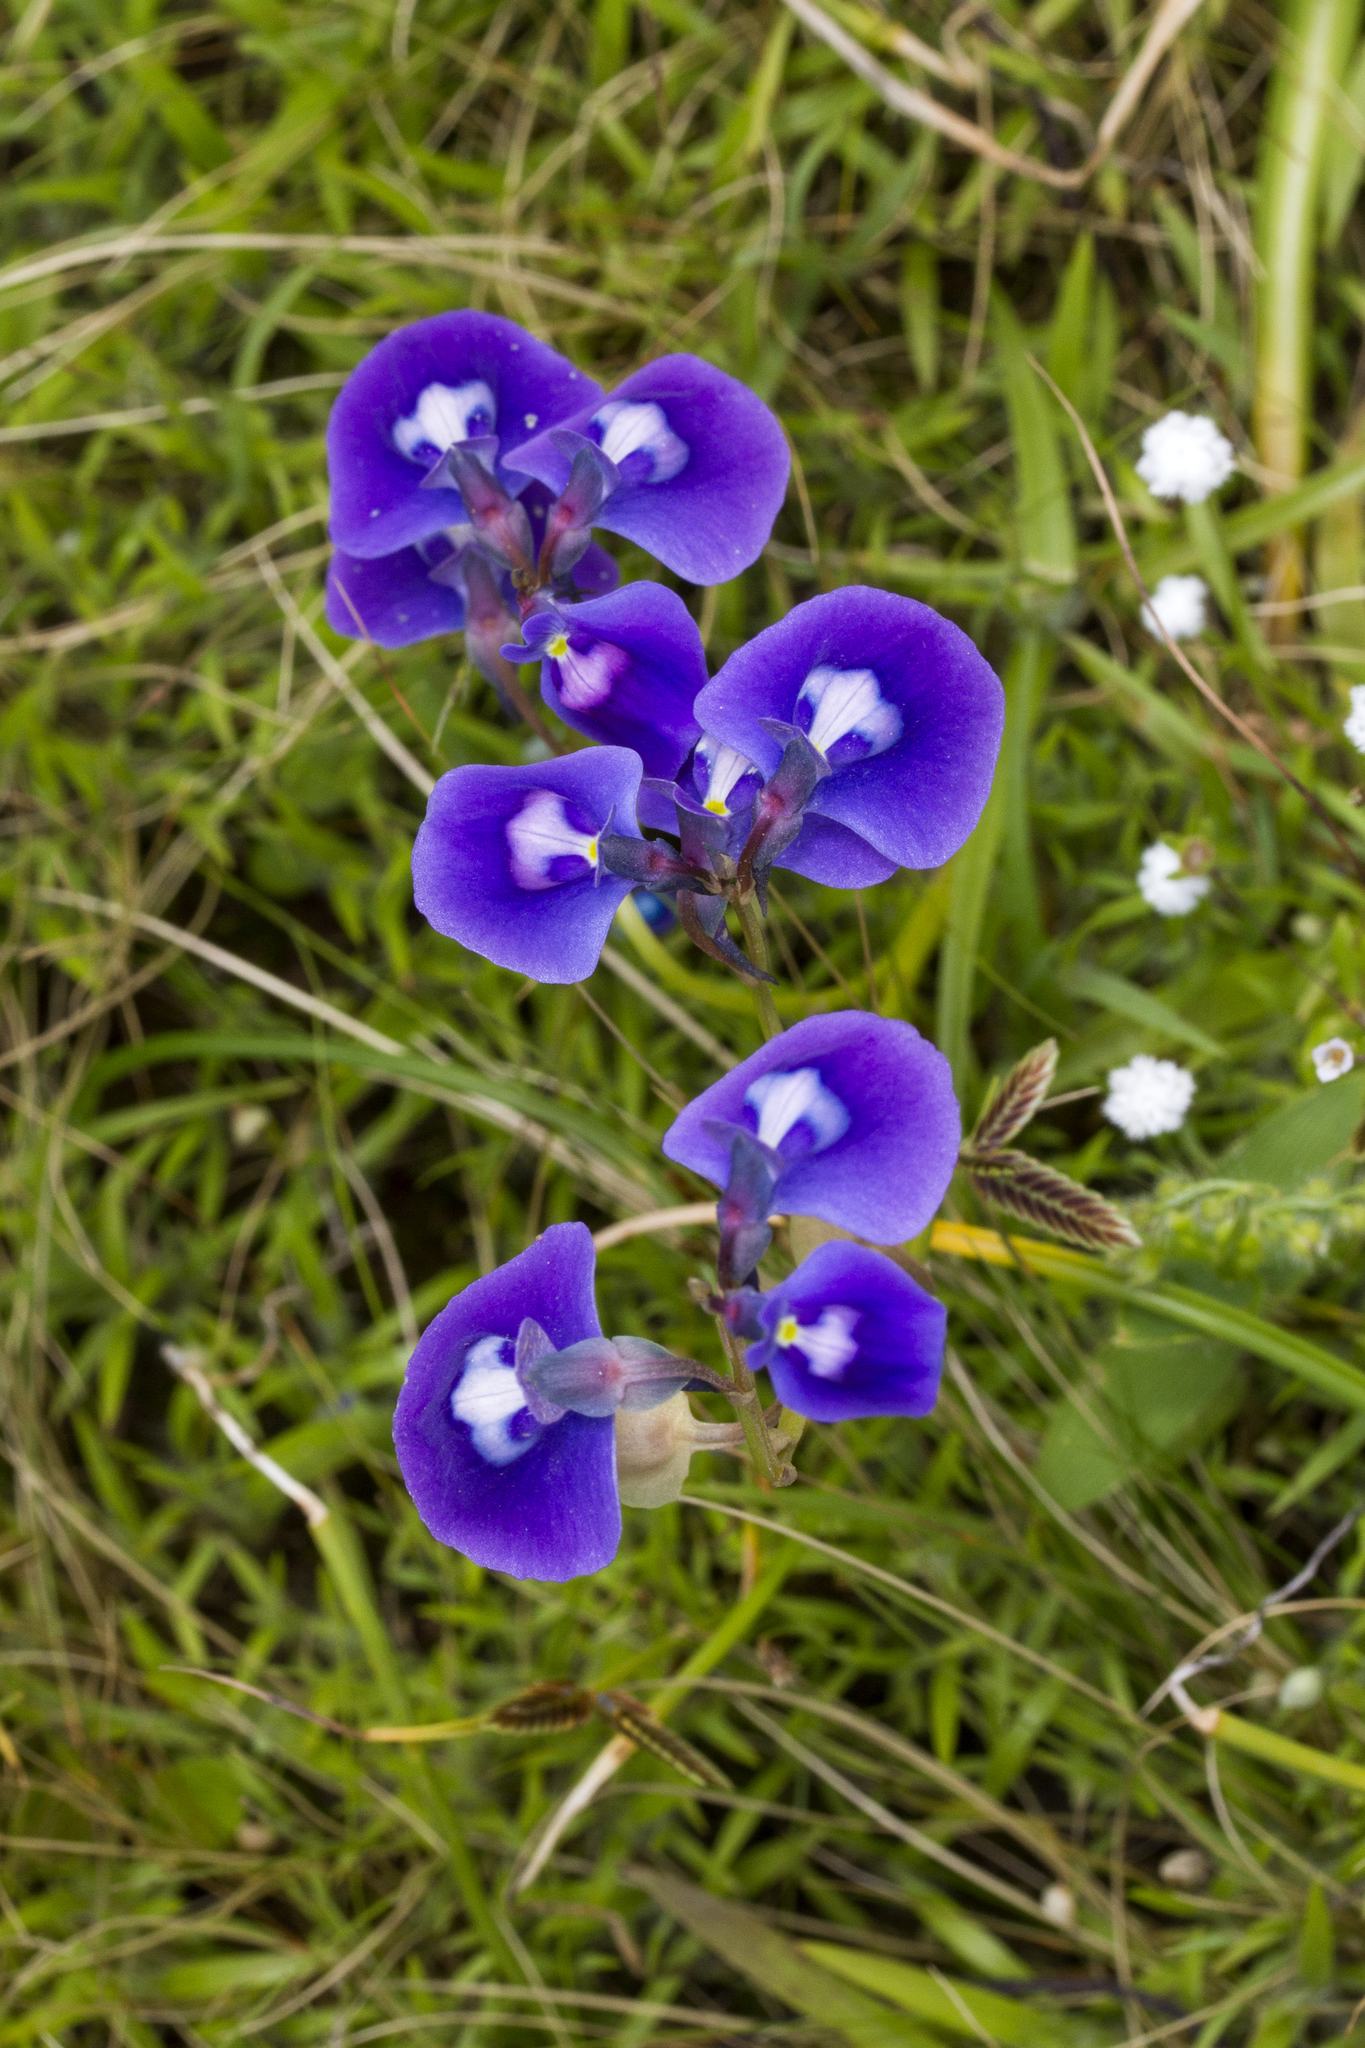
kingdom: Plantae
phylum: Tracheophyta
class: Magnoliopsida
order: Lamiales
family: Lentibulariaceae
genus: Utricularia
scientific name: Utricularia arcuata
